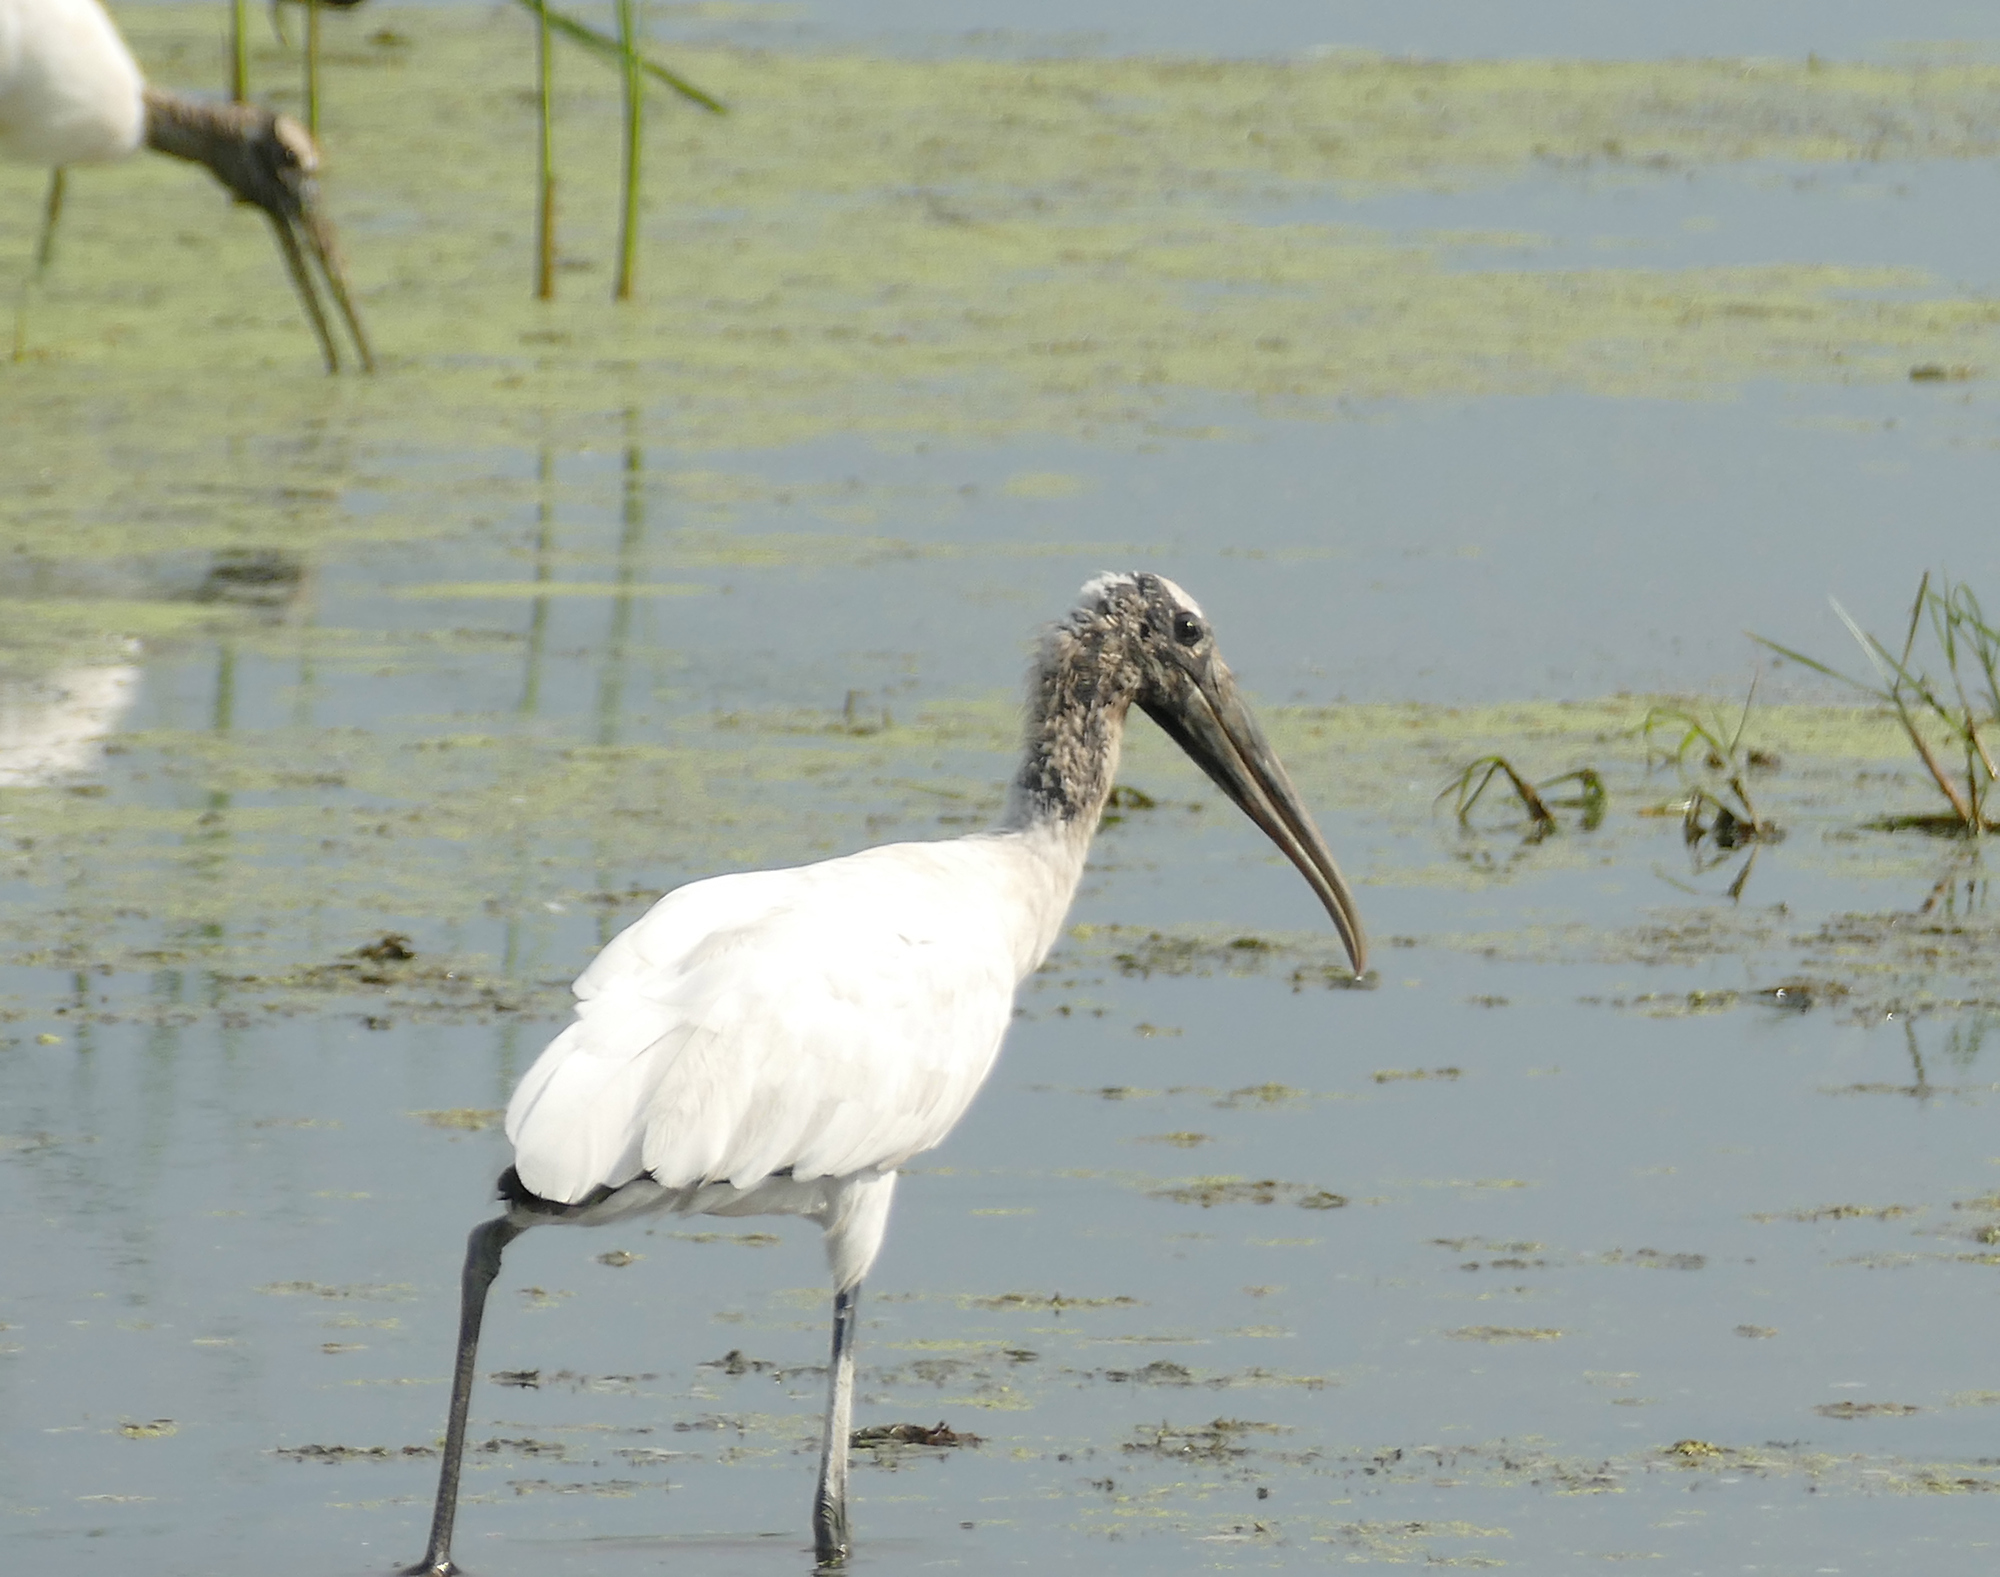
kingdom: Animalia
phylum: Chordata
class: Aves
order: Ciconiiformes
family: Ciconiidae
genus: Mycteria
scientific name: Mycteria americana
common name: Wood stork
